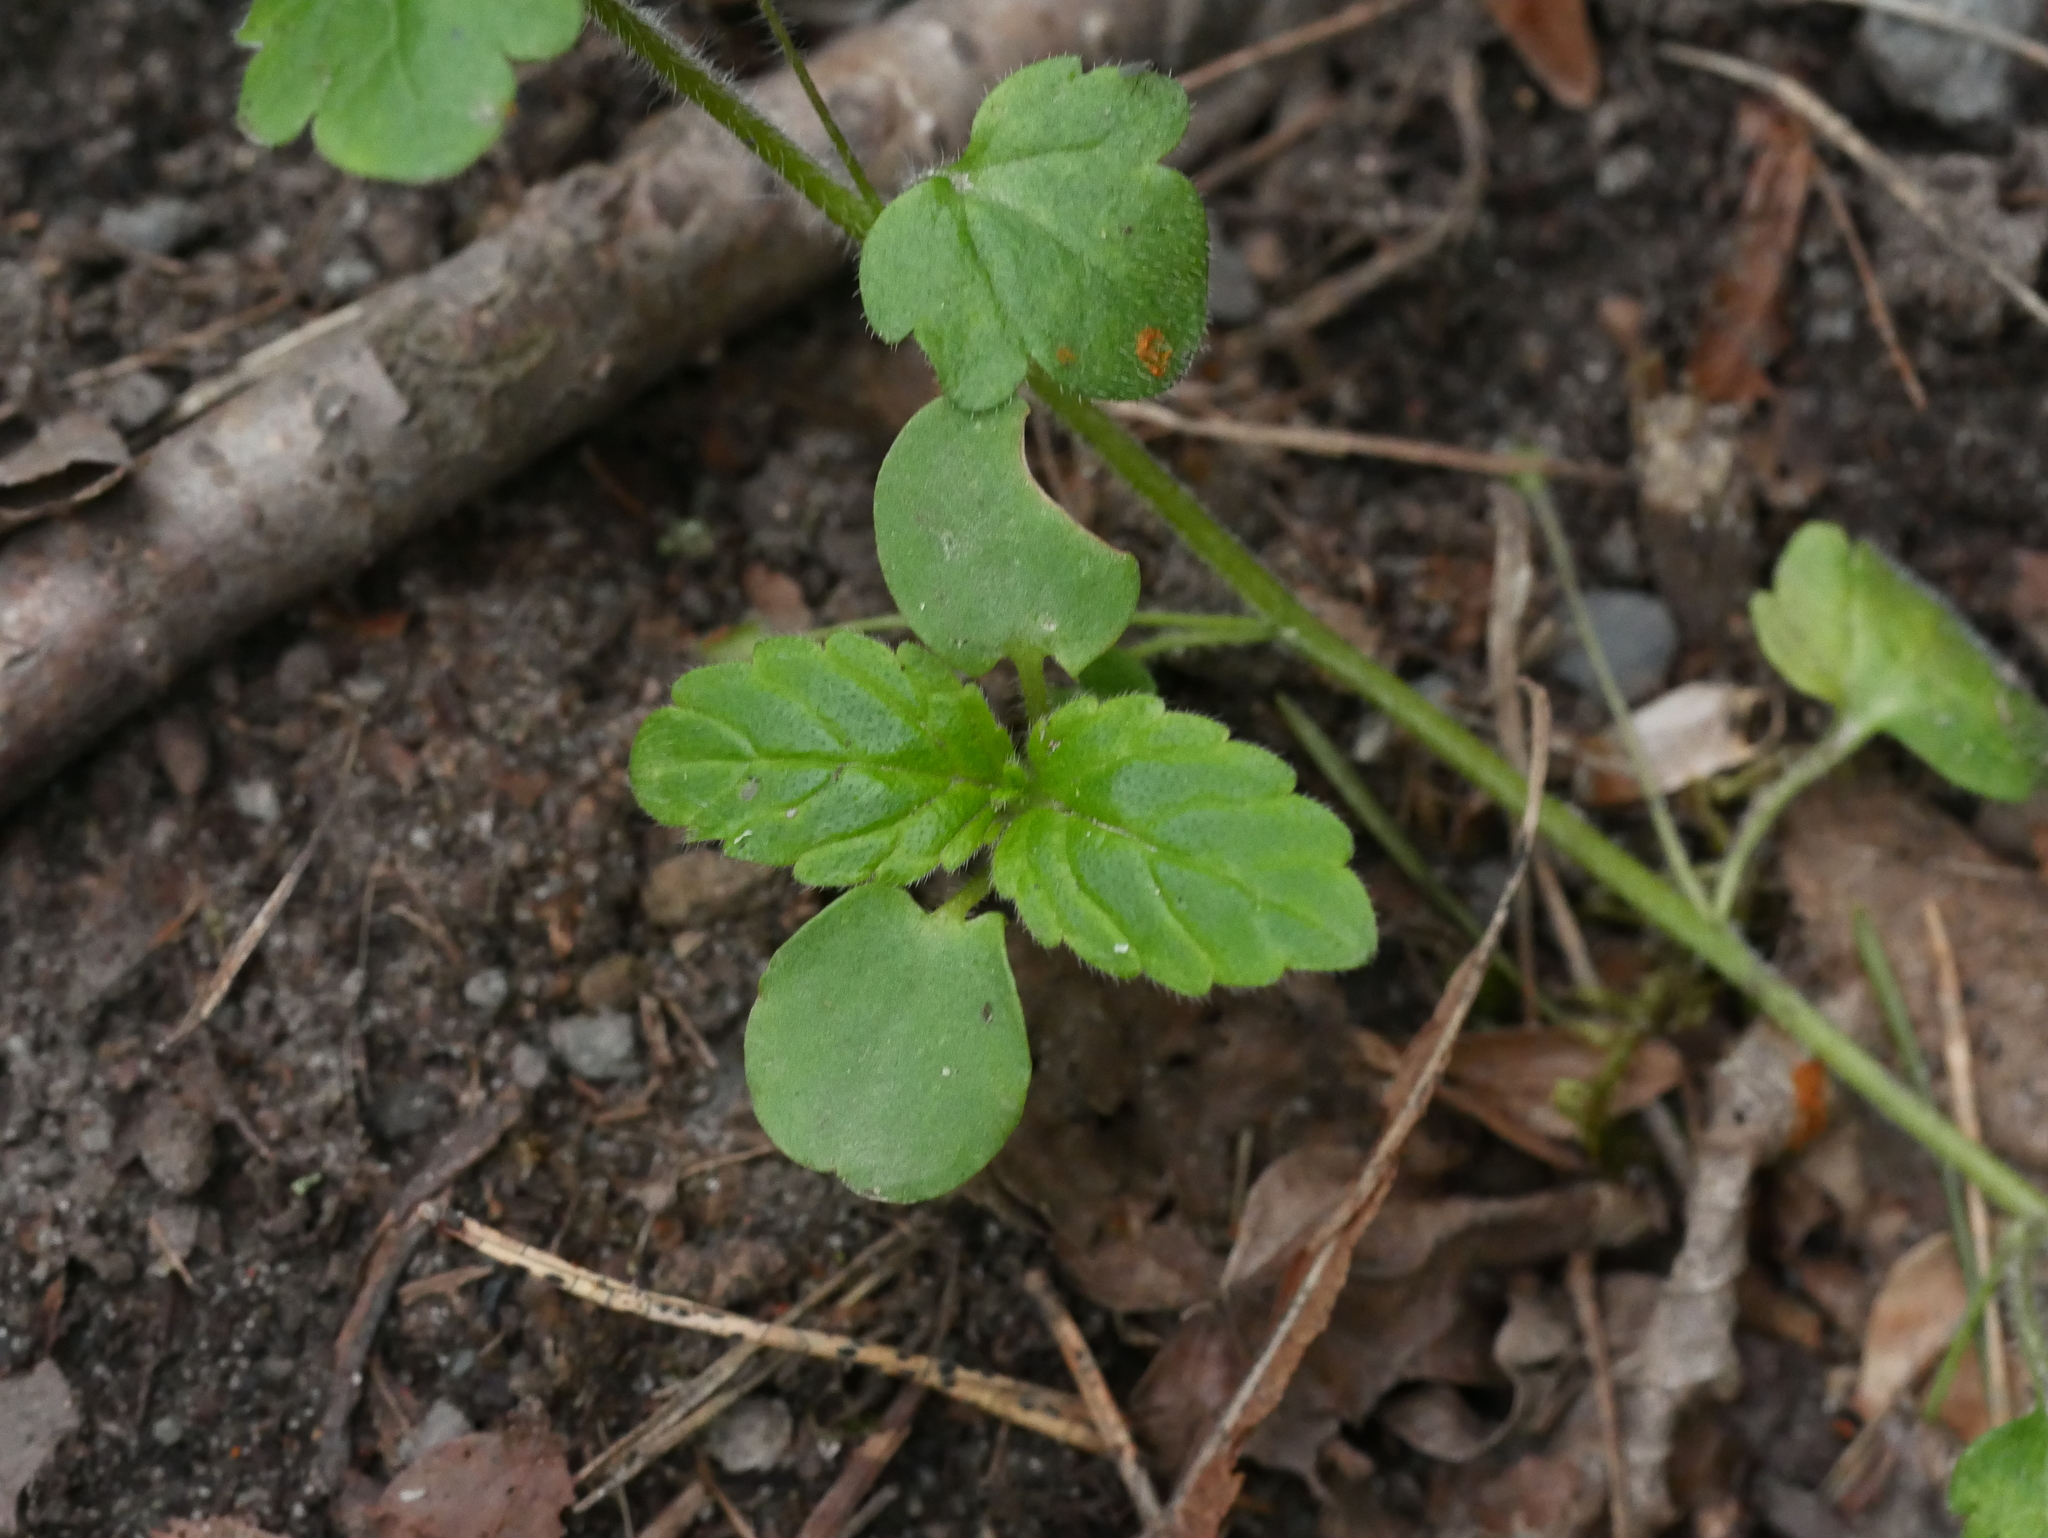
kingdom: Plantae
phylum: Tracheophyta
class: Magnoliopsida
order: Lamiales
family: Plantaginaceae
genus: Veronica
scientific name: Veronica montana
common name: Wood speedwell
